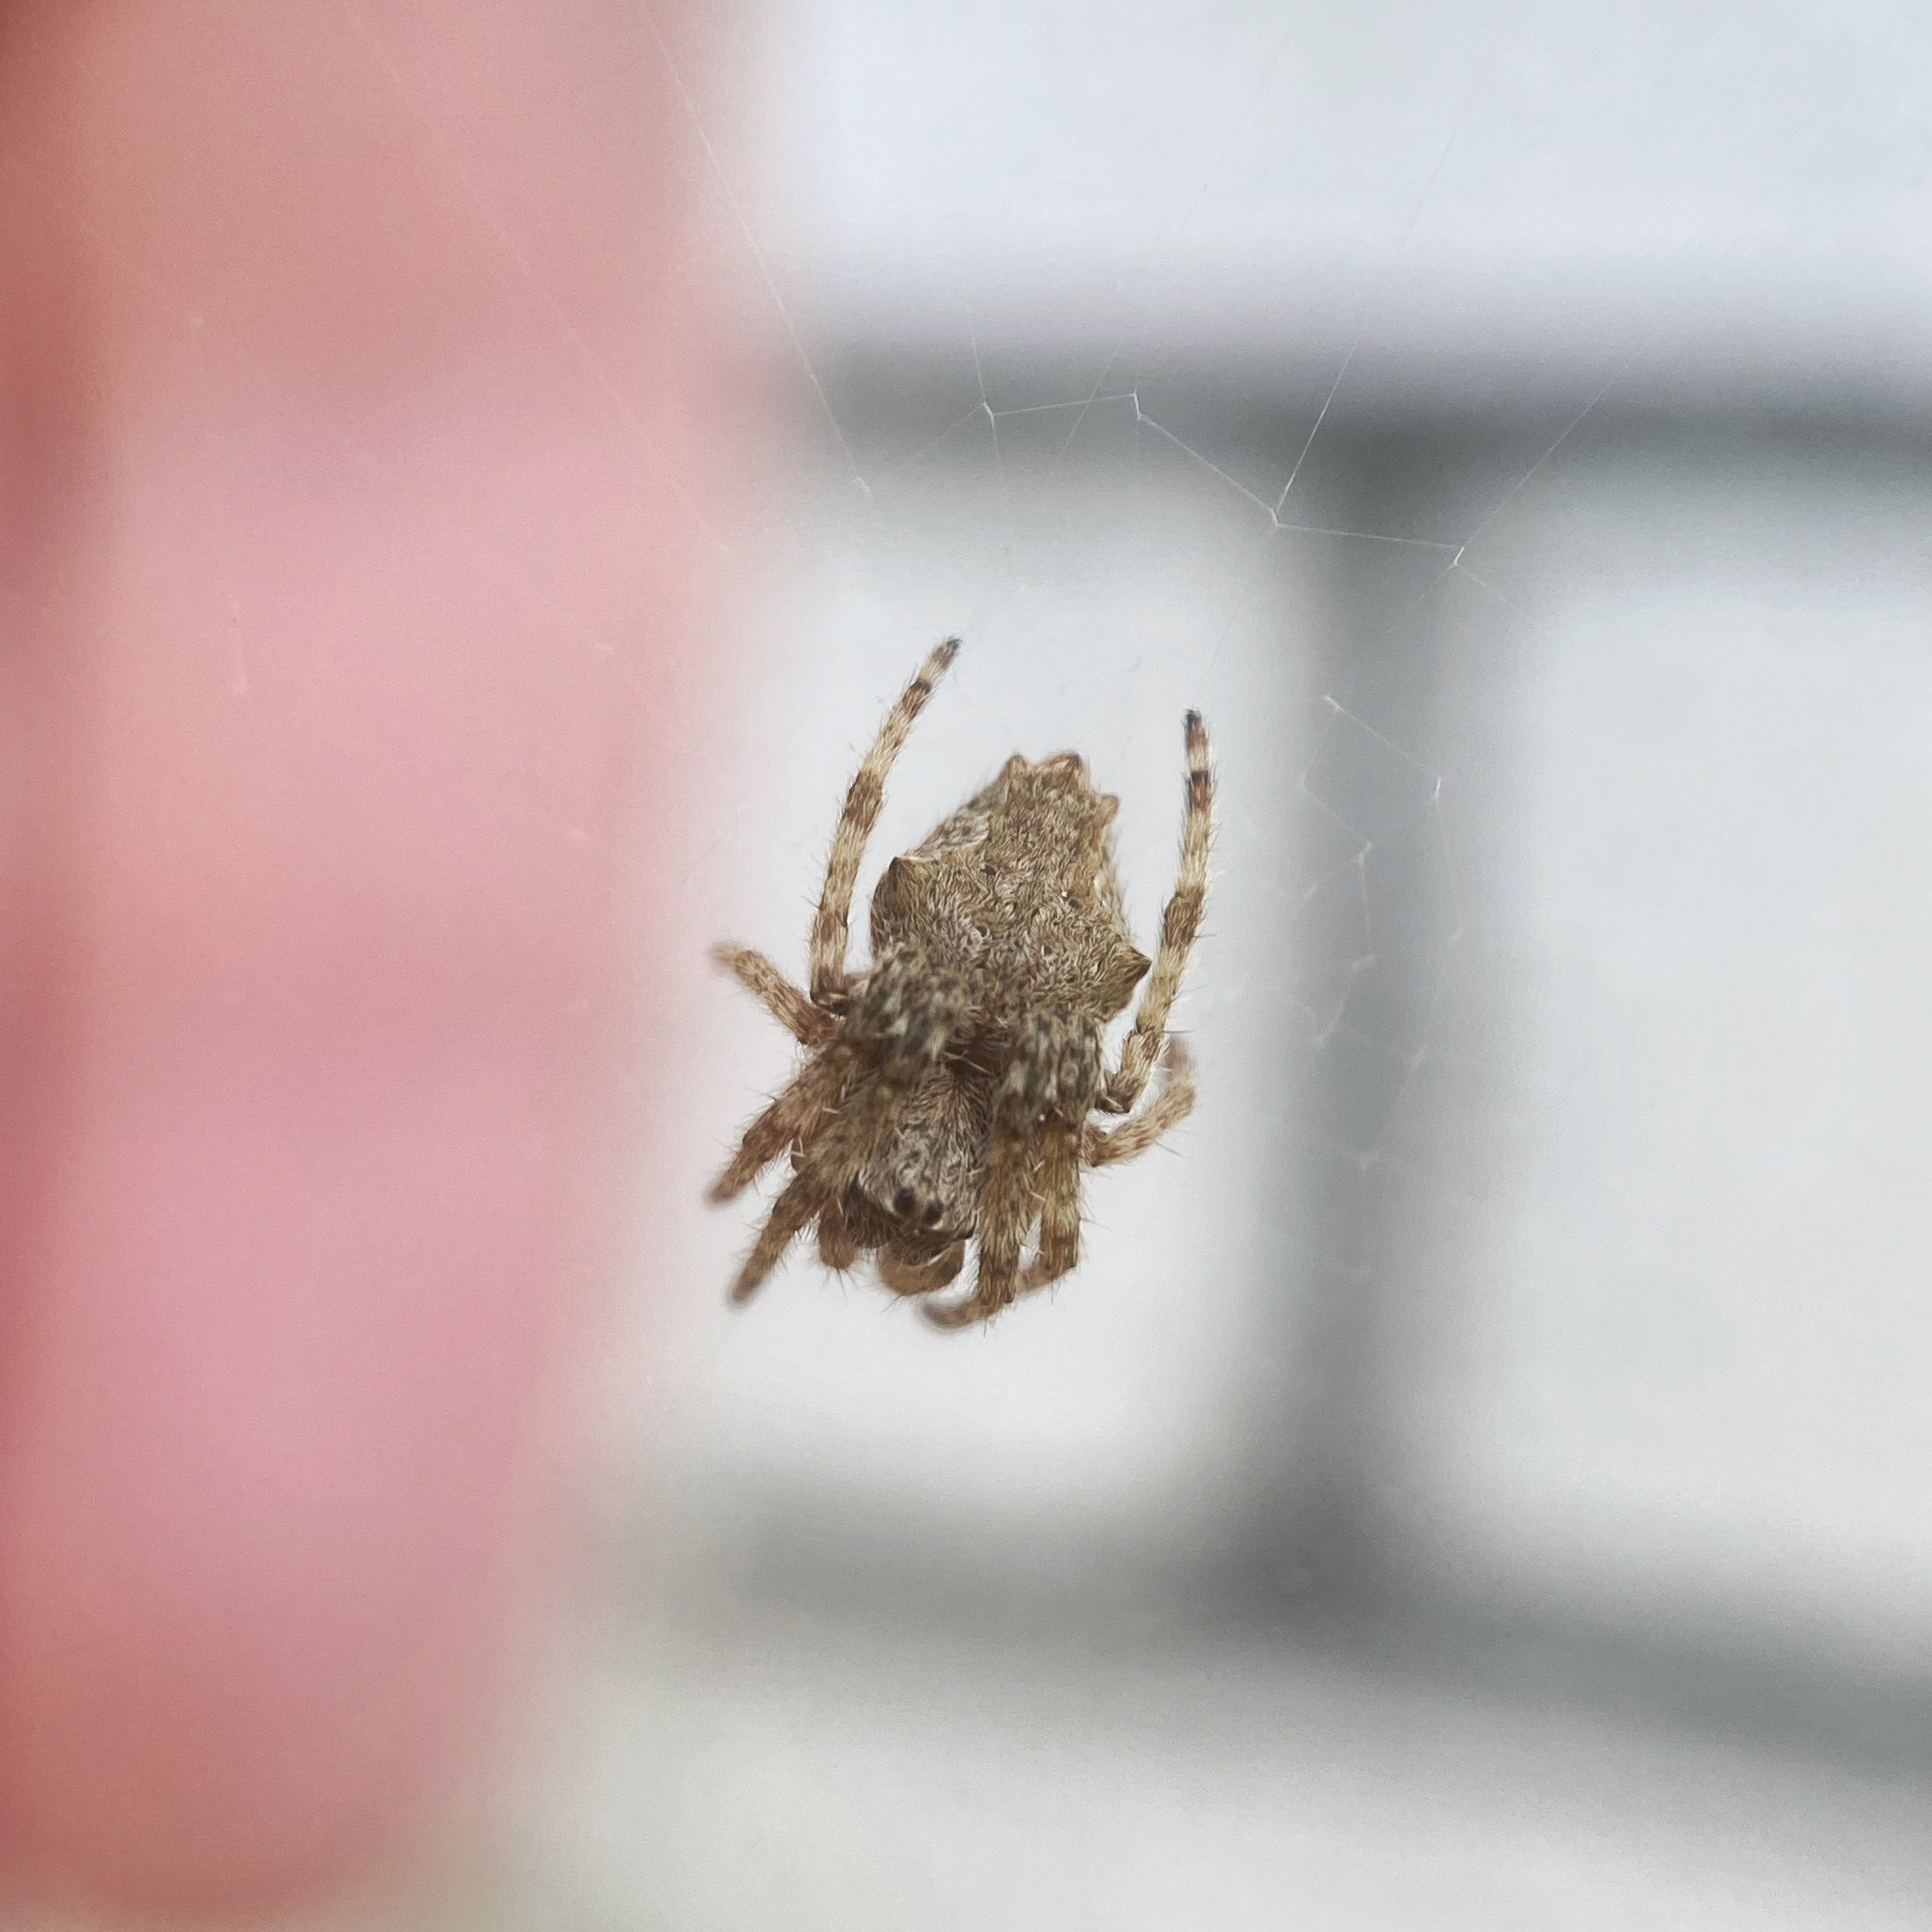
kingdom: Animalia
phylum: Arthropoda
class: Arachnida
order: Araneae
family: Araneidae
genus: Eriophora
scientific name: Eriophora pustulosa
